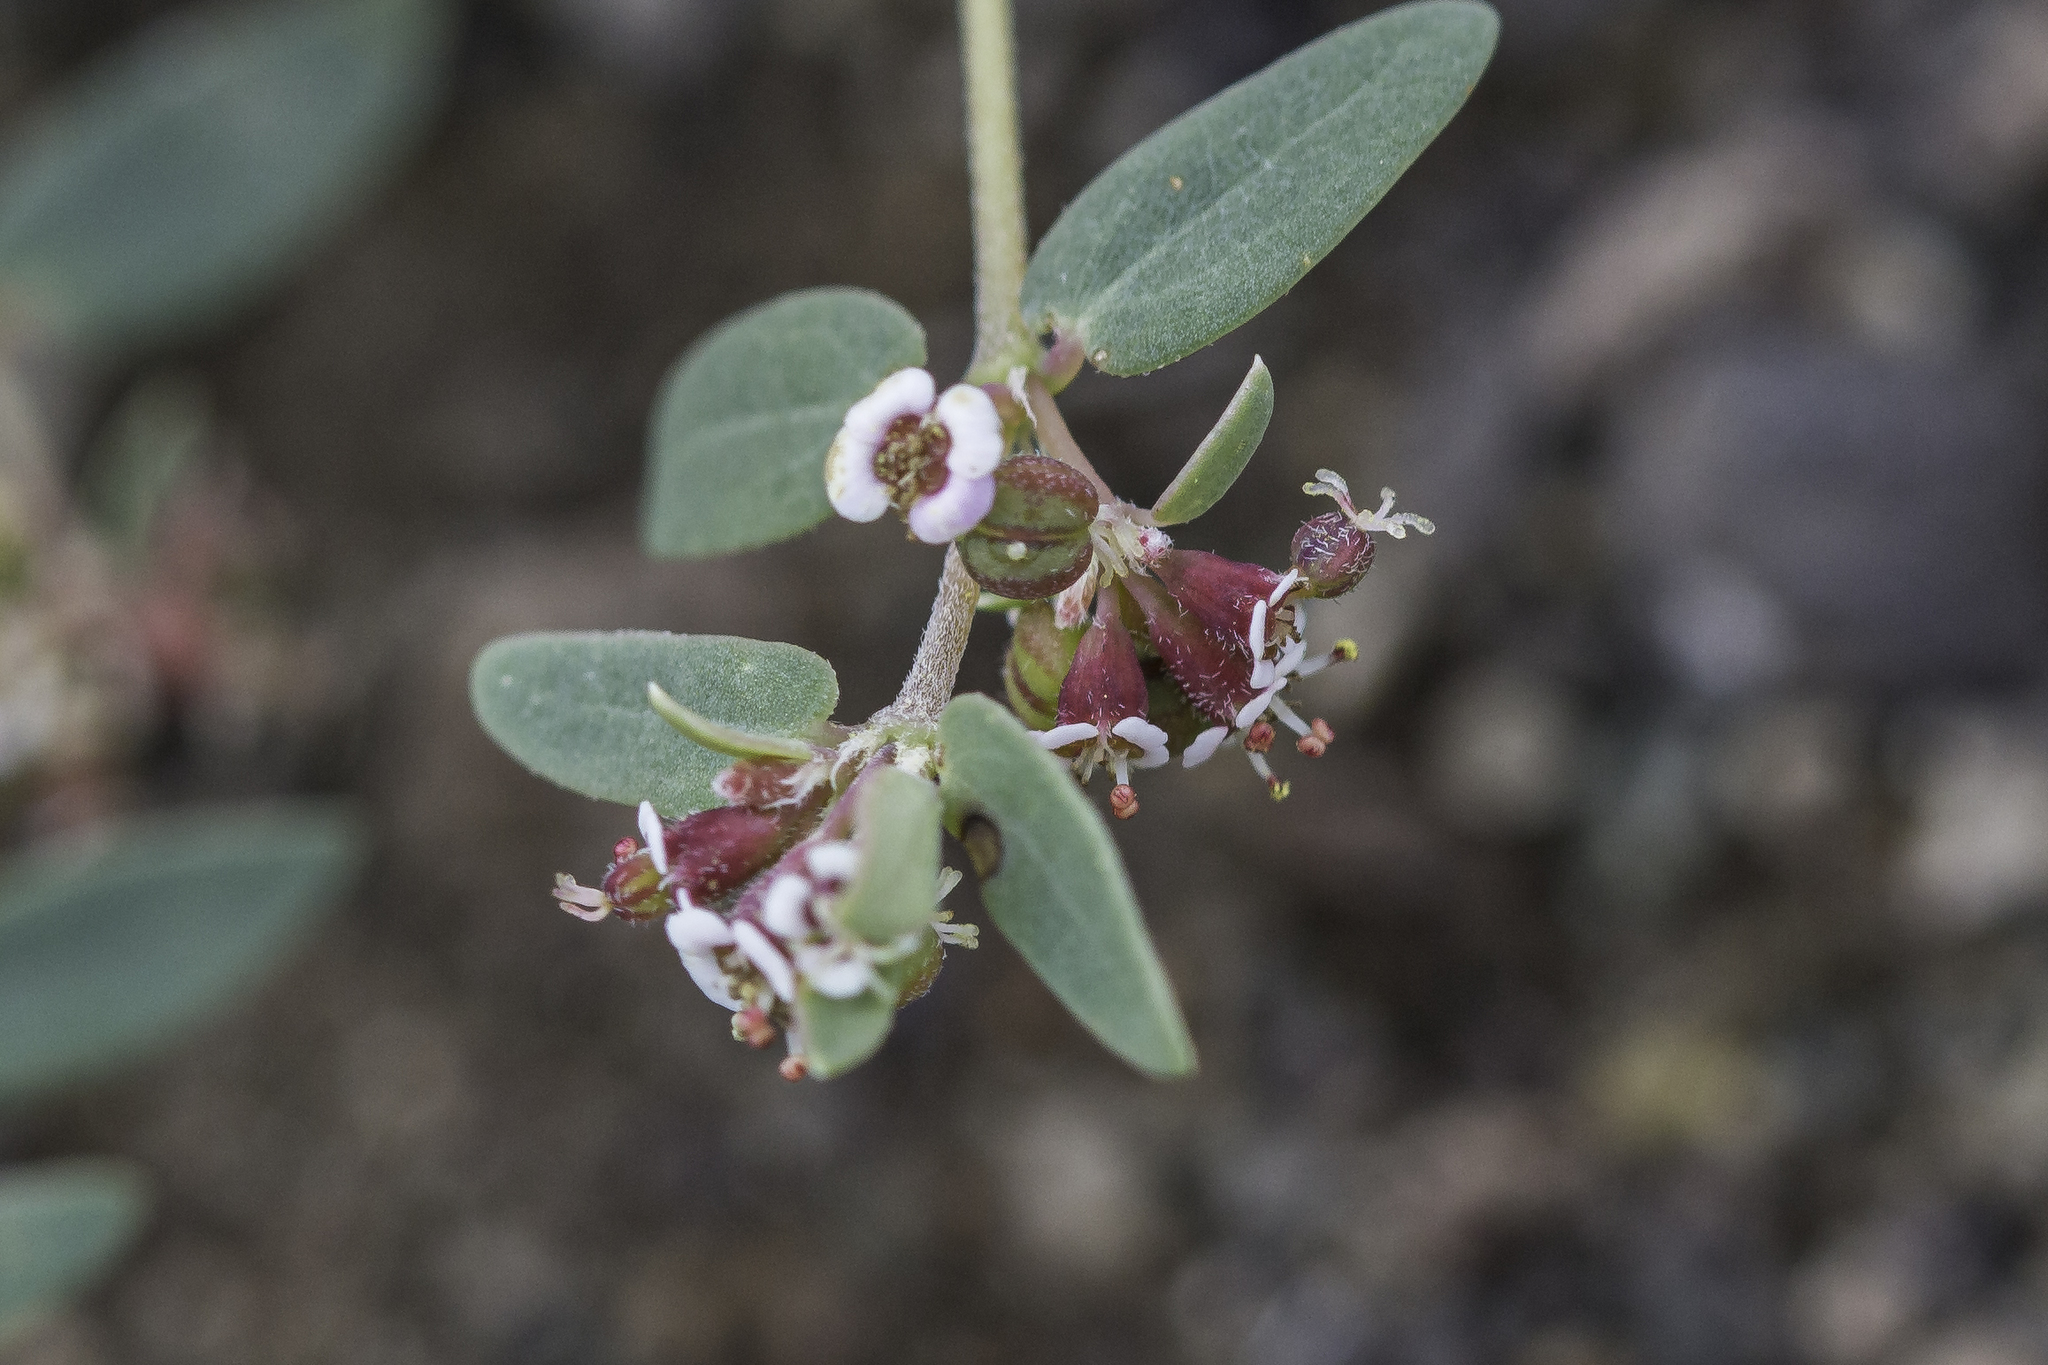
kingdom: Plantae
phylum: Tracheophyta
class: Magnoliopsida
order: Malpighiales
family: Euphorbiaceae
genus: Euphorbia
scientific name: Euphorbia capitellata
